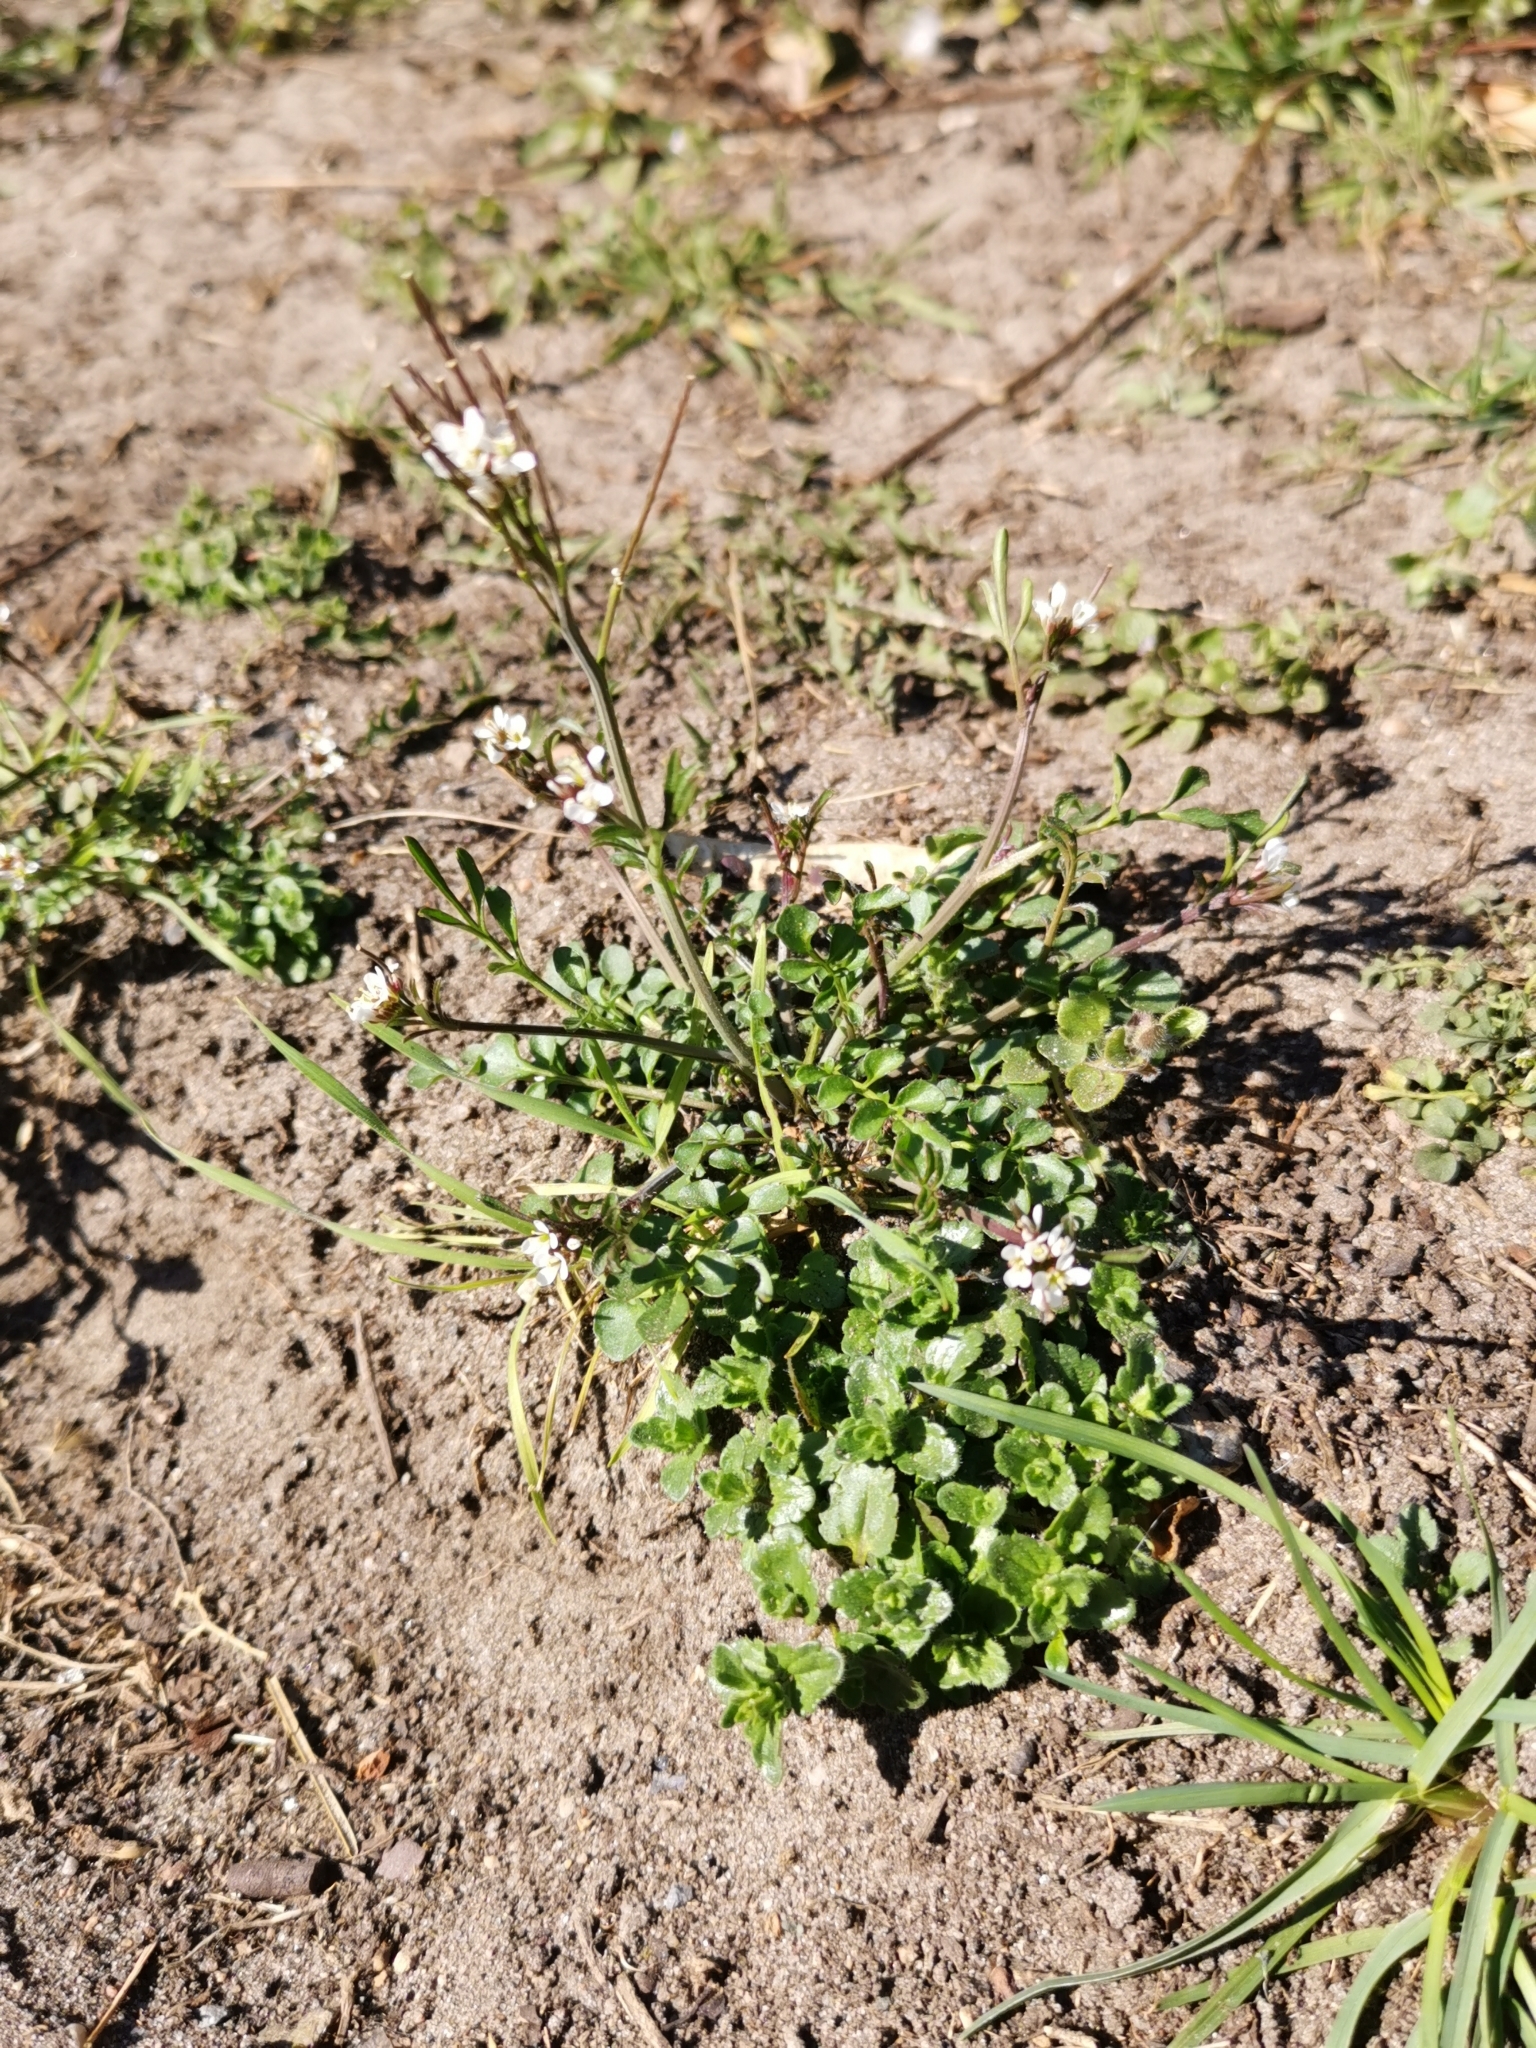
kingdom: Plantae
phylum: Tracheophyta
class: Magnoliopsida
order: Brassicales
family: Brassicaceae
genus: Cardamine
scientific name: Cardamine hirsuta
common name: Hairy bittercress
